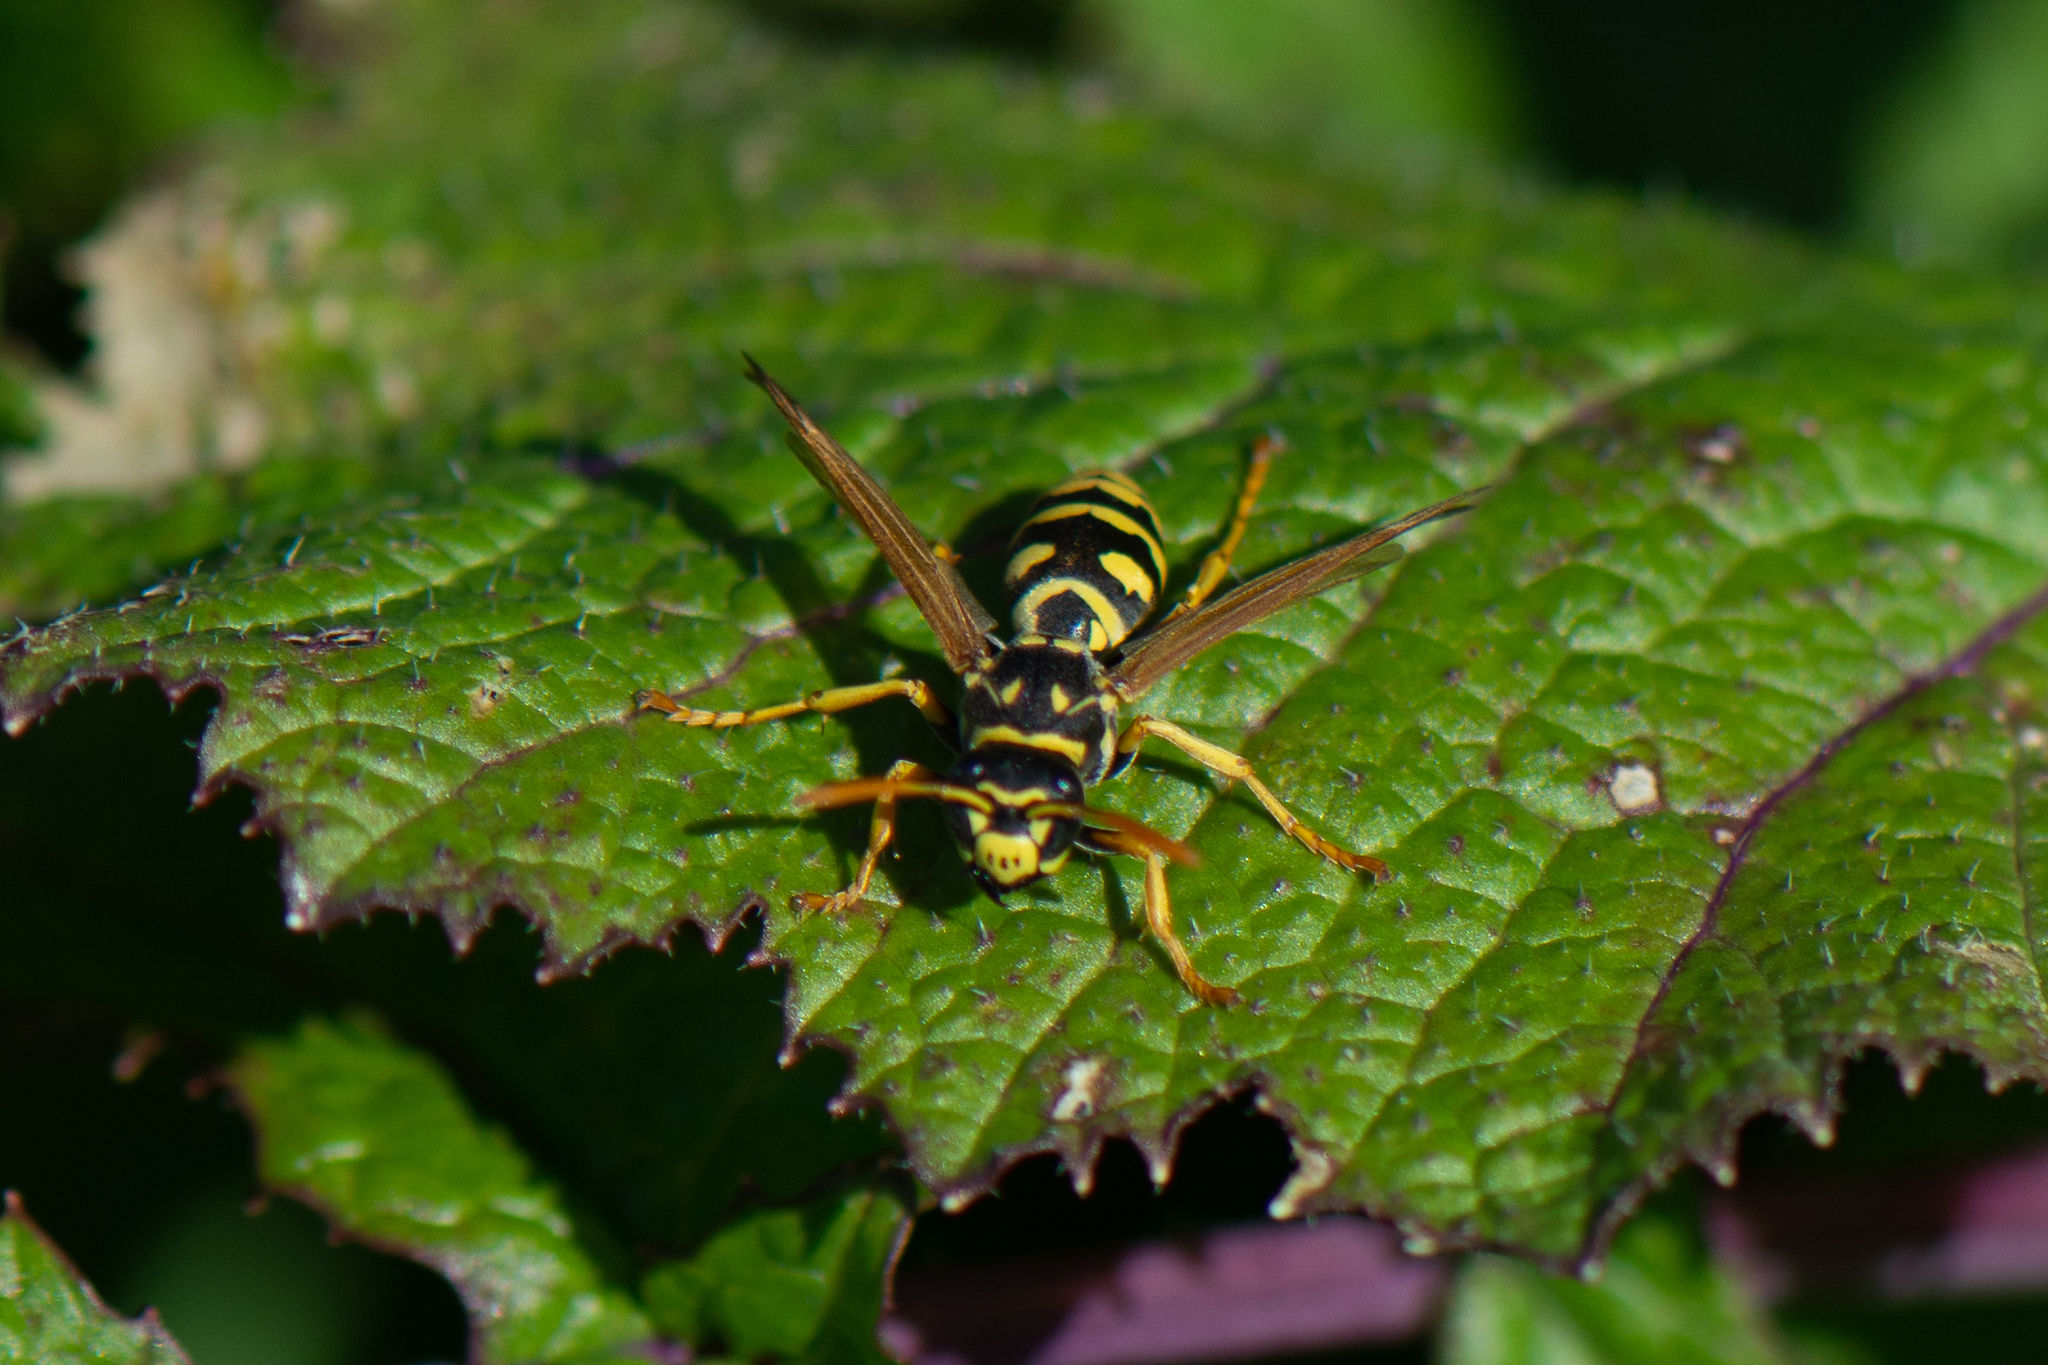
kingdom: Animalia
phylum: Arthropoda
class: Insecta
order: Hymenoptera
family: Eumenidae
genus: Polistes
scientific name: Polistes dominula
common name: Paper wasp
